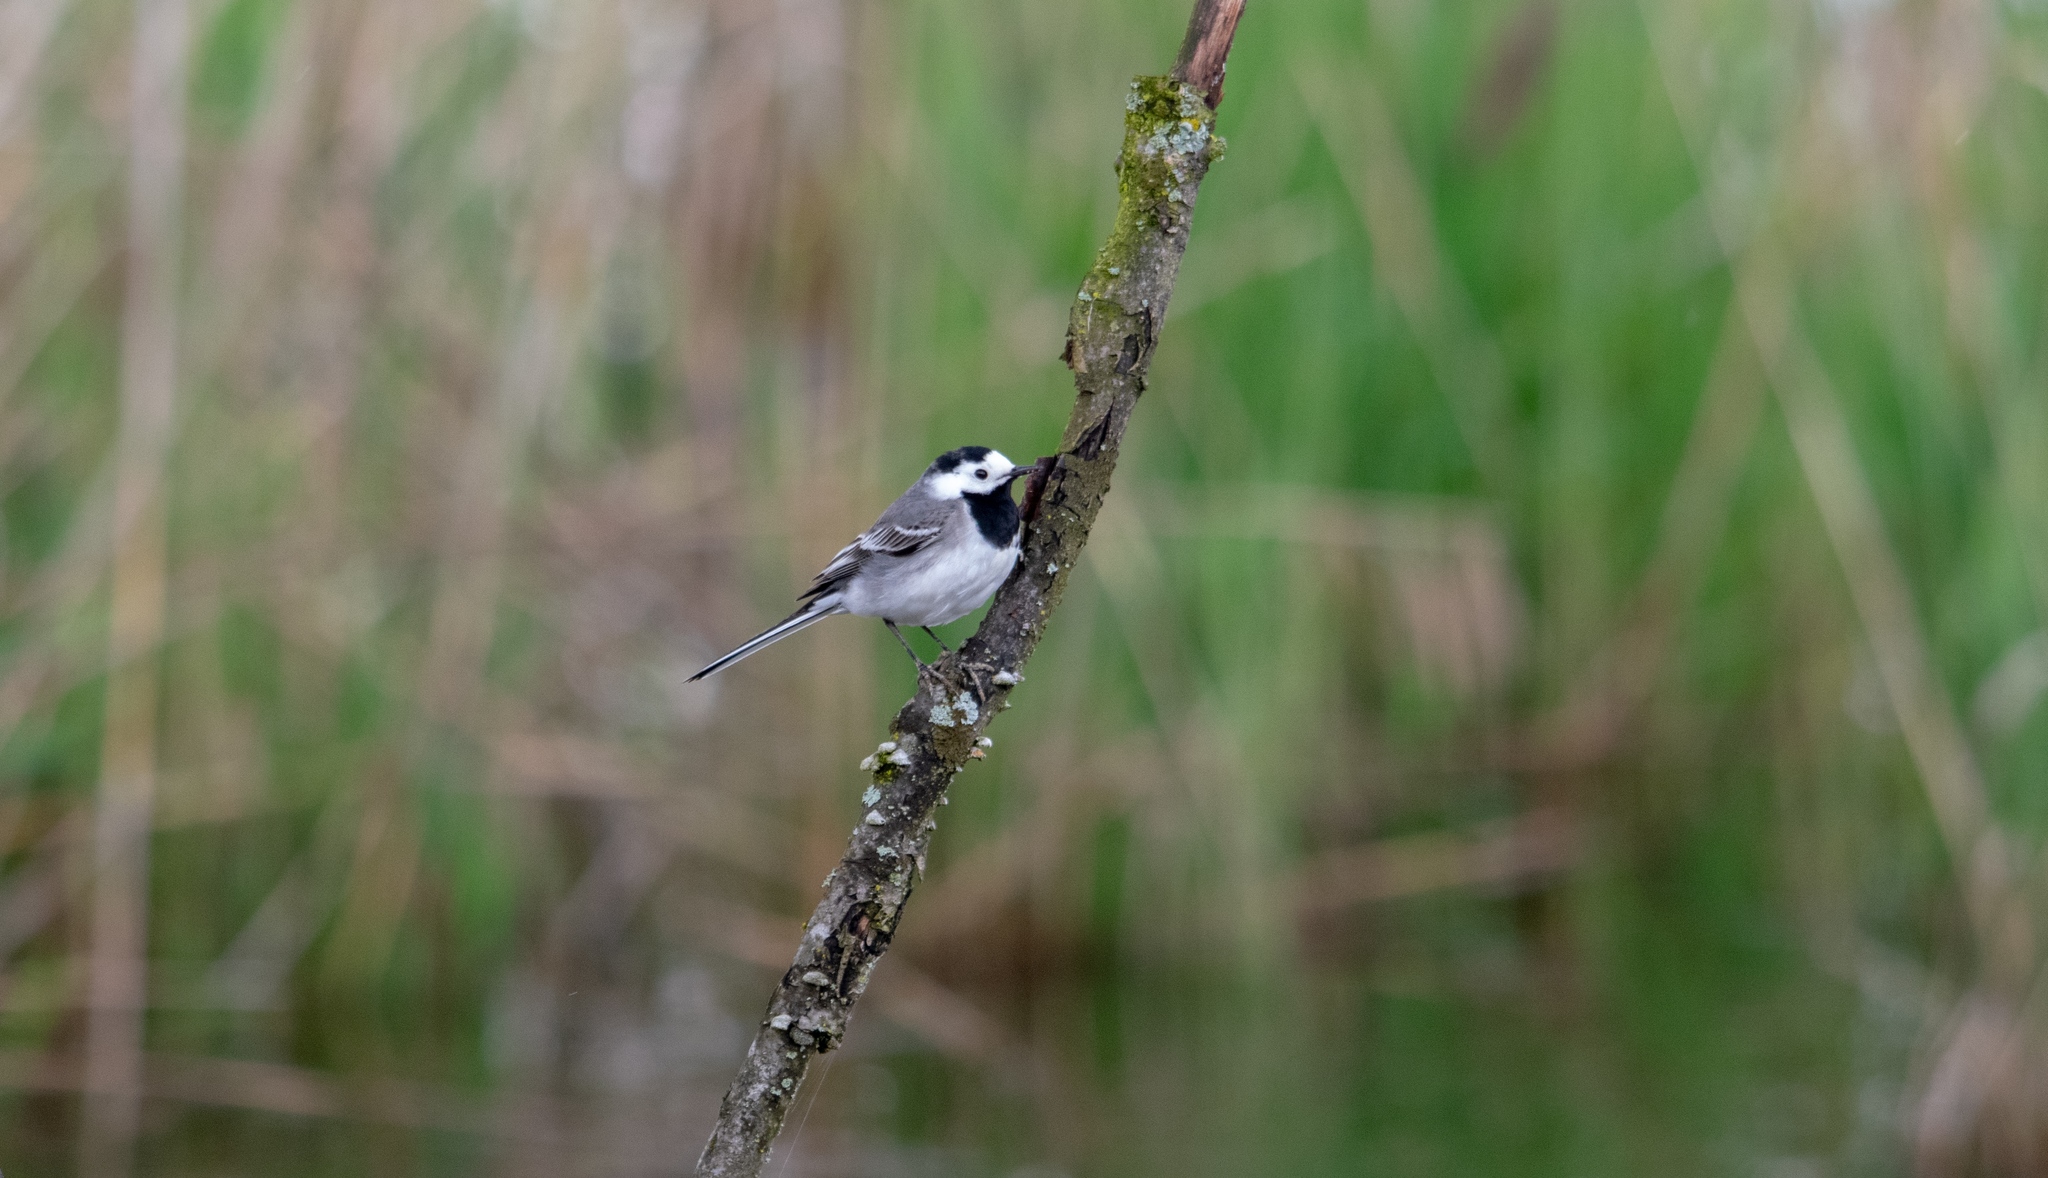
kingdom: Animalia
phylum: Chordata
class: Aves
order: Passeriformes
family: Motacillidae
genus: Motacilla
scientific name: Motacilla alba
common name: White wagtail
